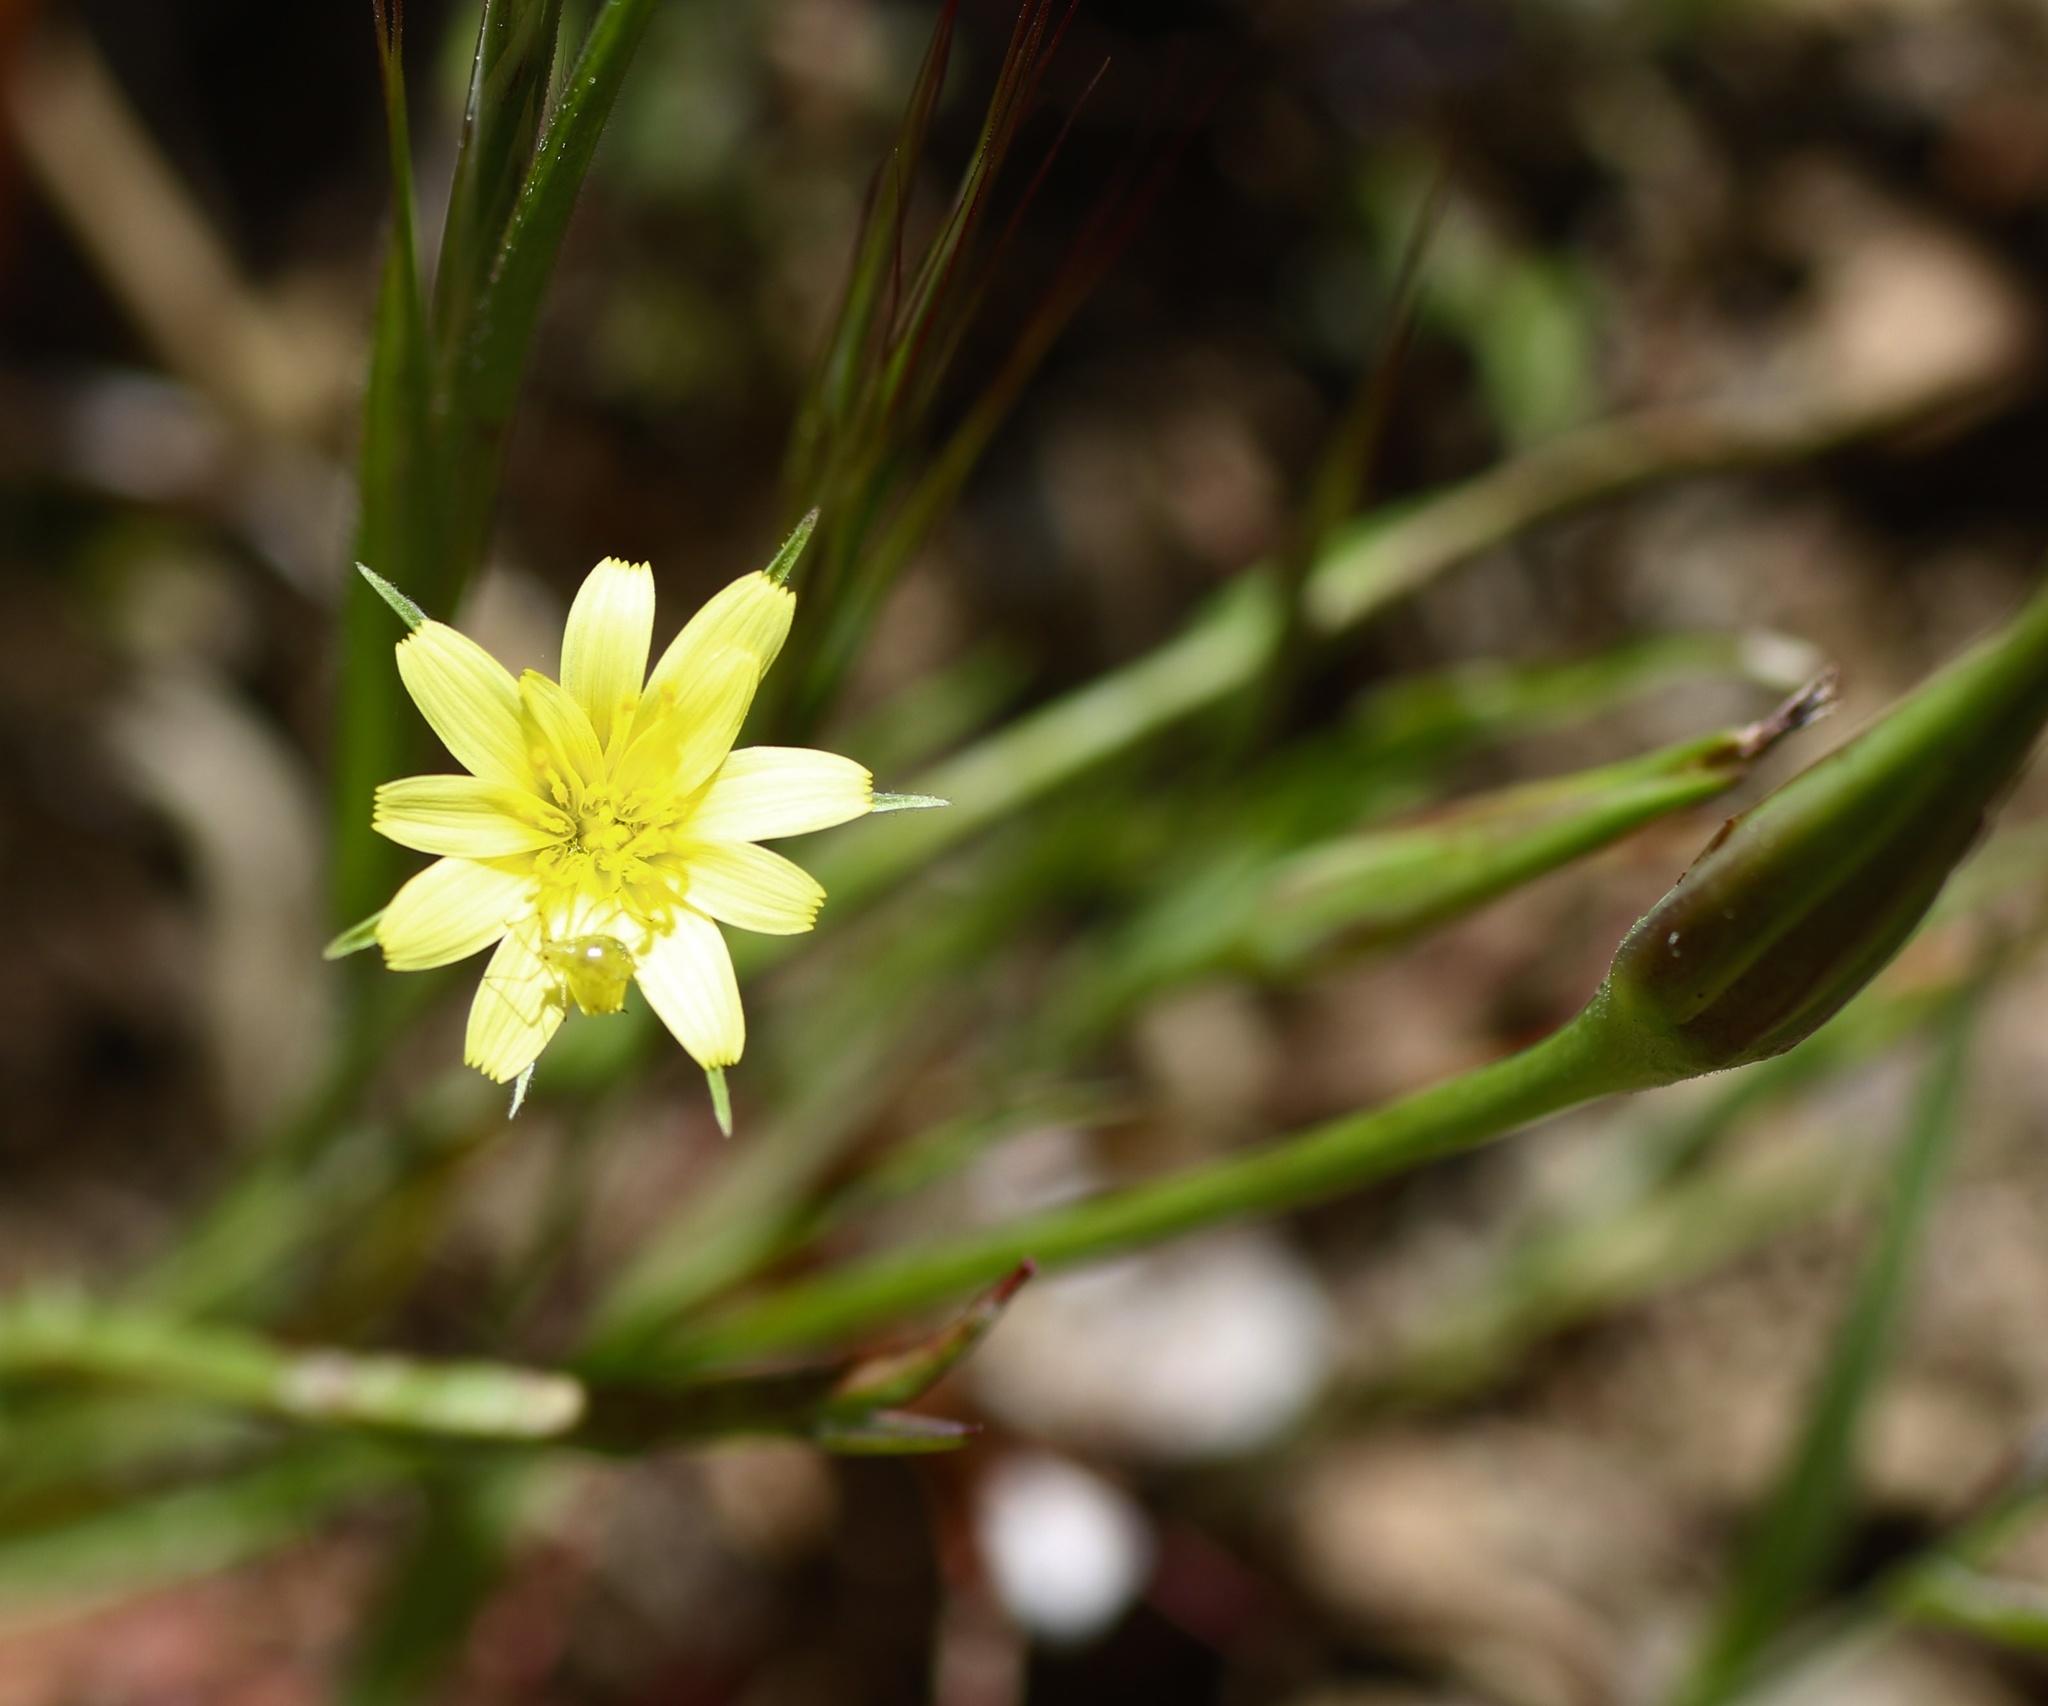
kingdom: Plantae
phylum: Tracheophyta
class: Magnoliopsida
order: Asterales
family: Asteraceae
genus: Microseris
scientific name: Microseris lindleyi
